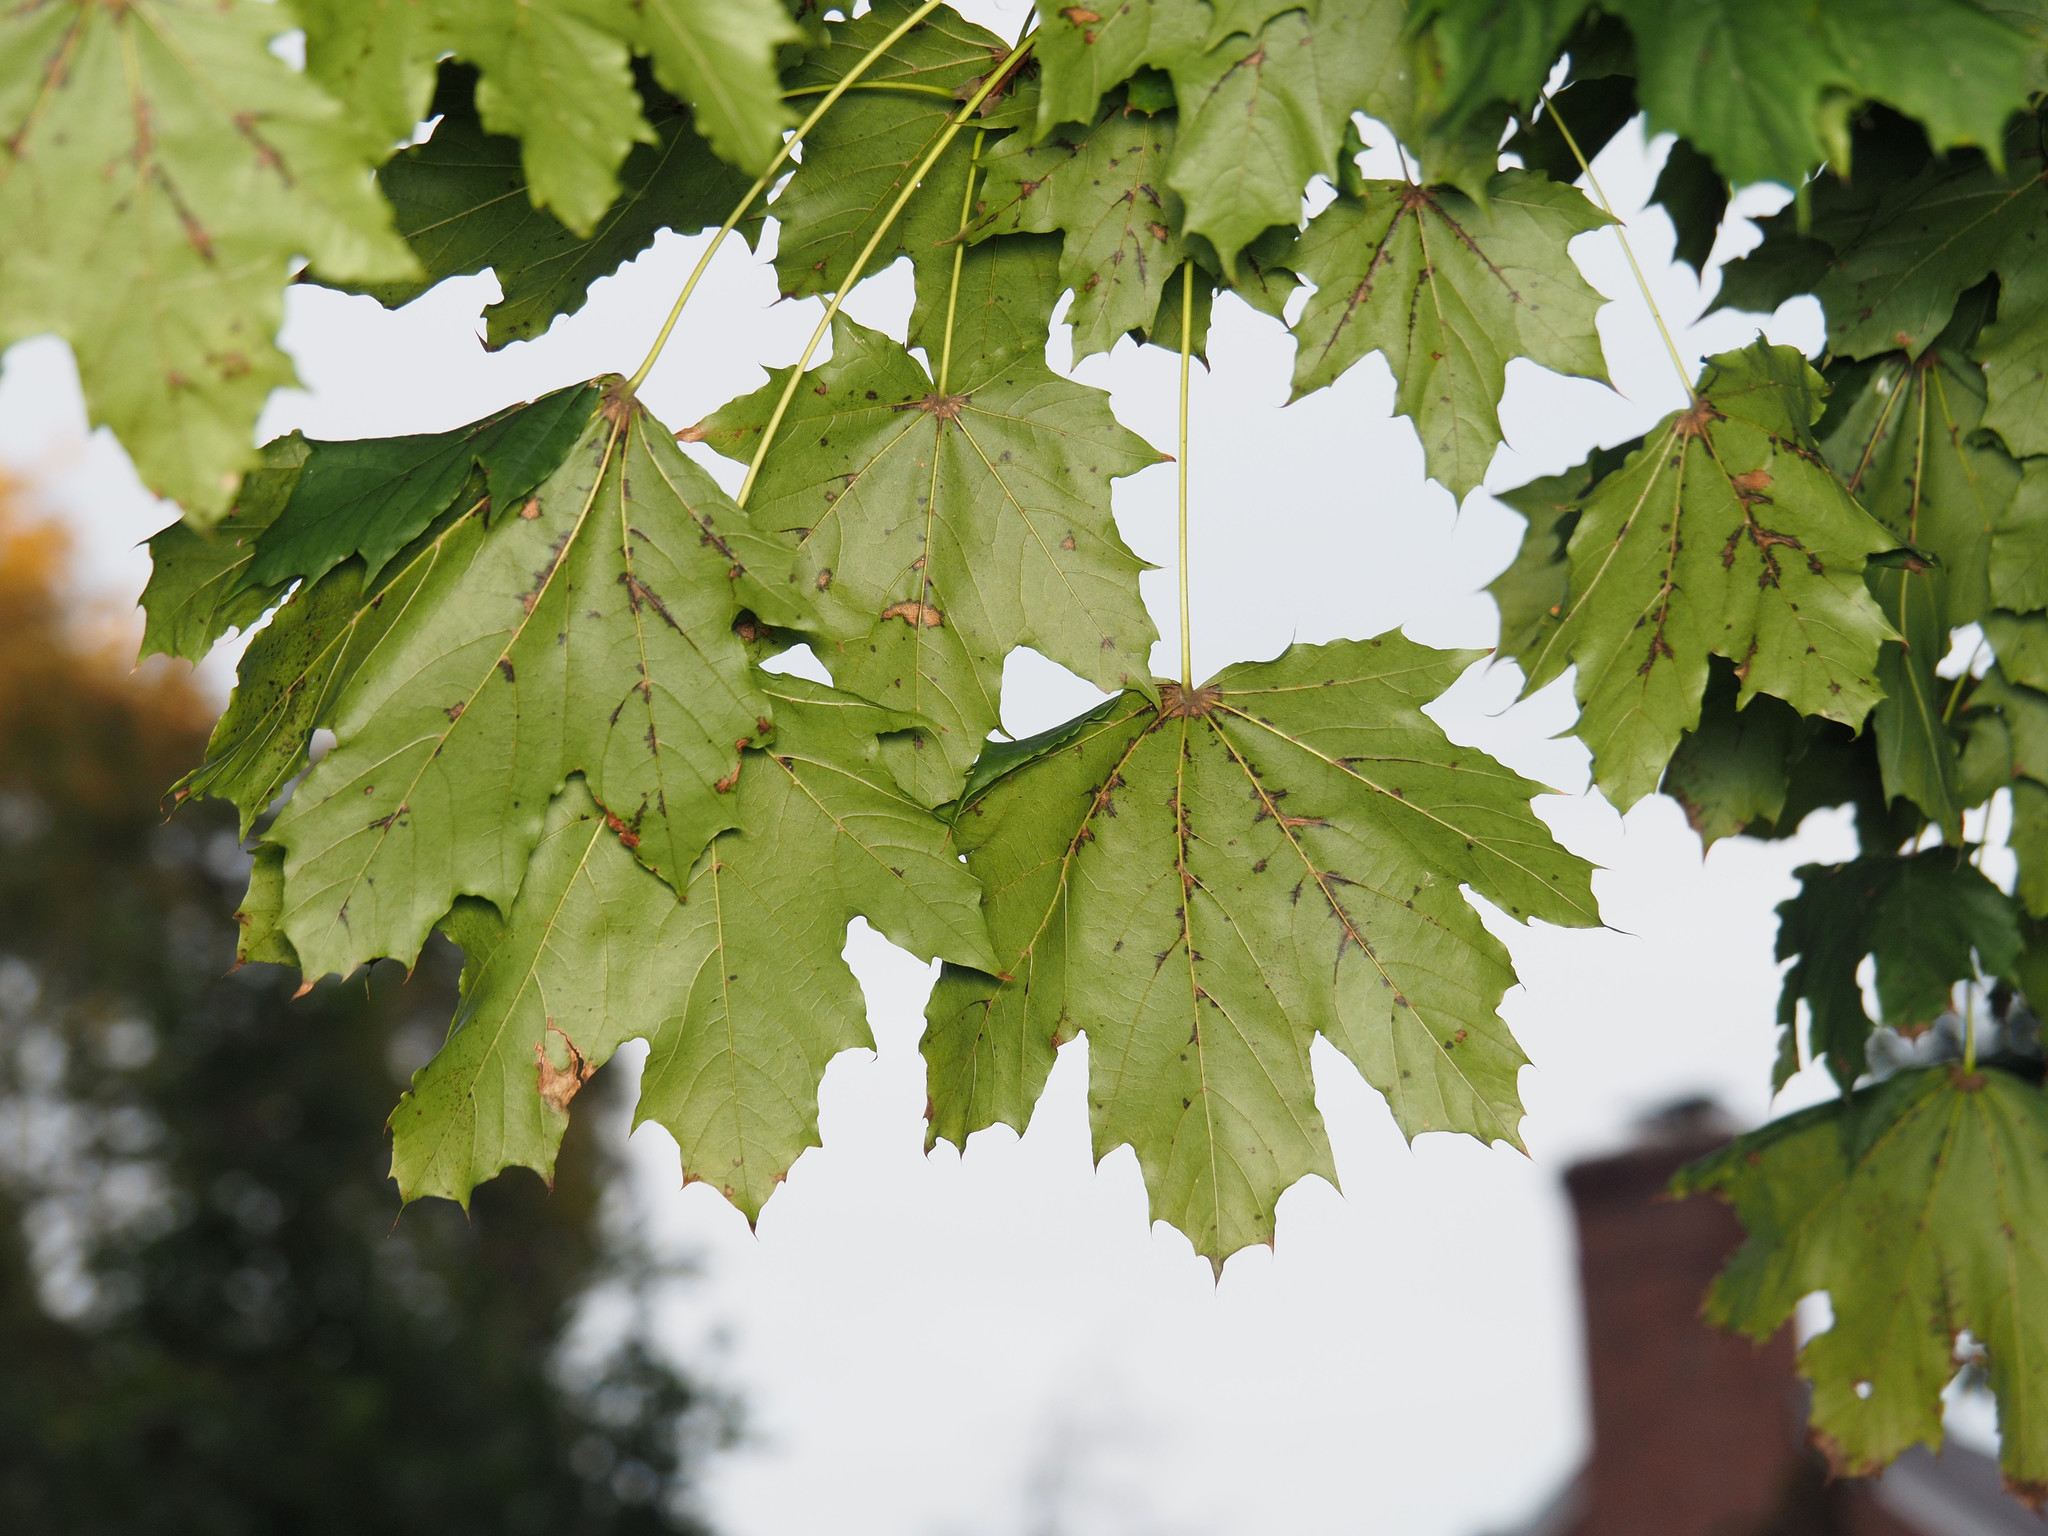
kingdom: Plantae
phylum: Tracheophyta
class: Magnoliopsida
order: Sapindales
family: Sapindaceae
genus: Acer
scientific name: Acer platanoides
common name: Norway maple
